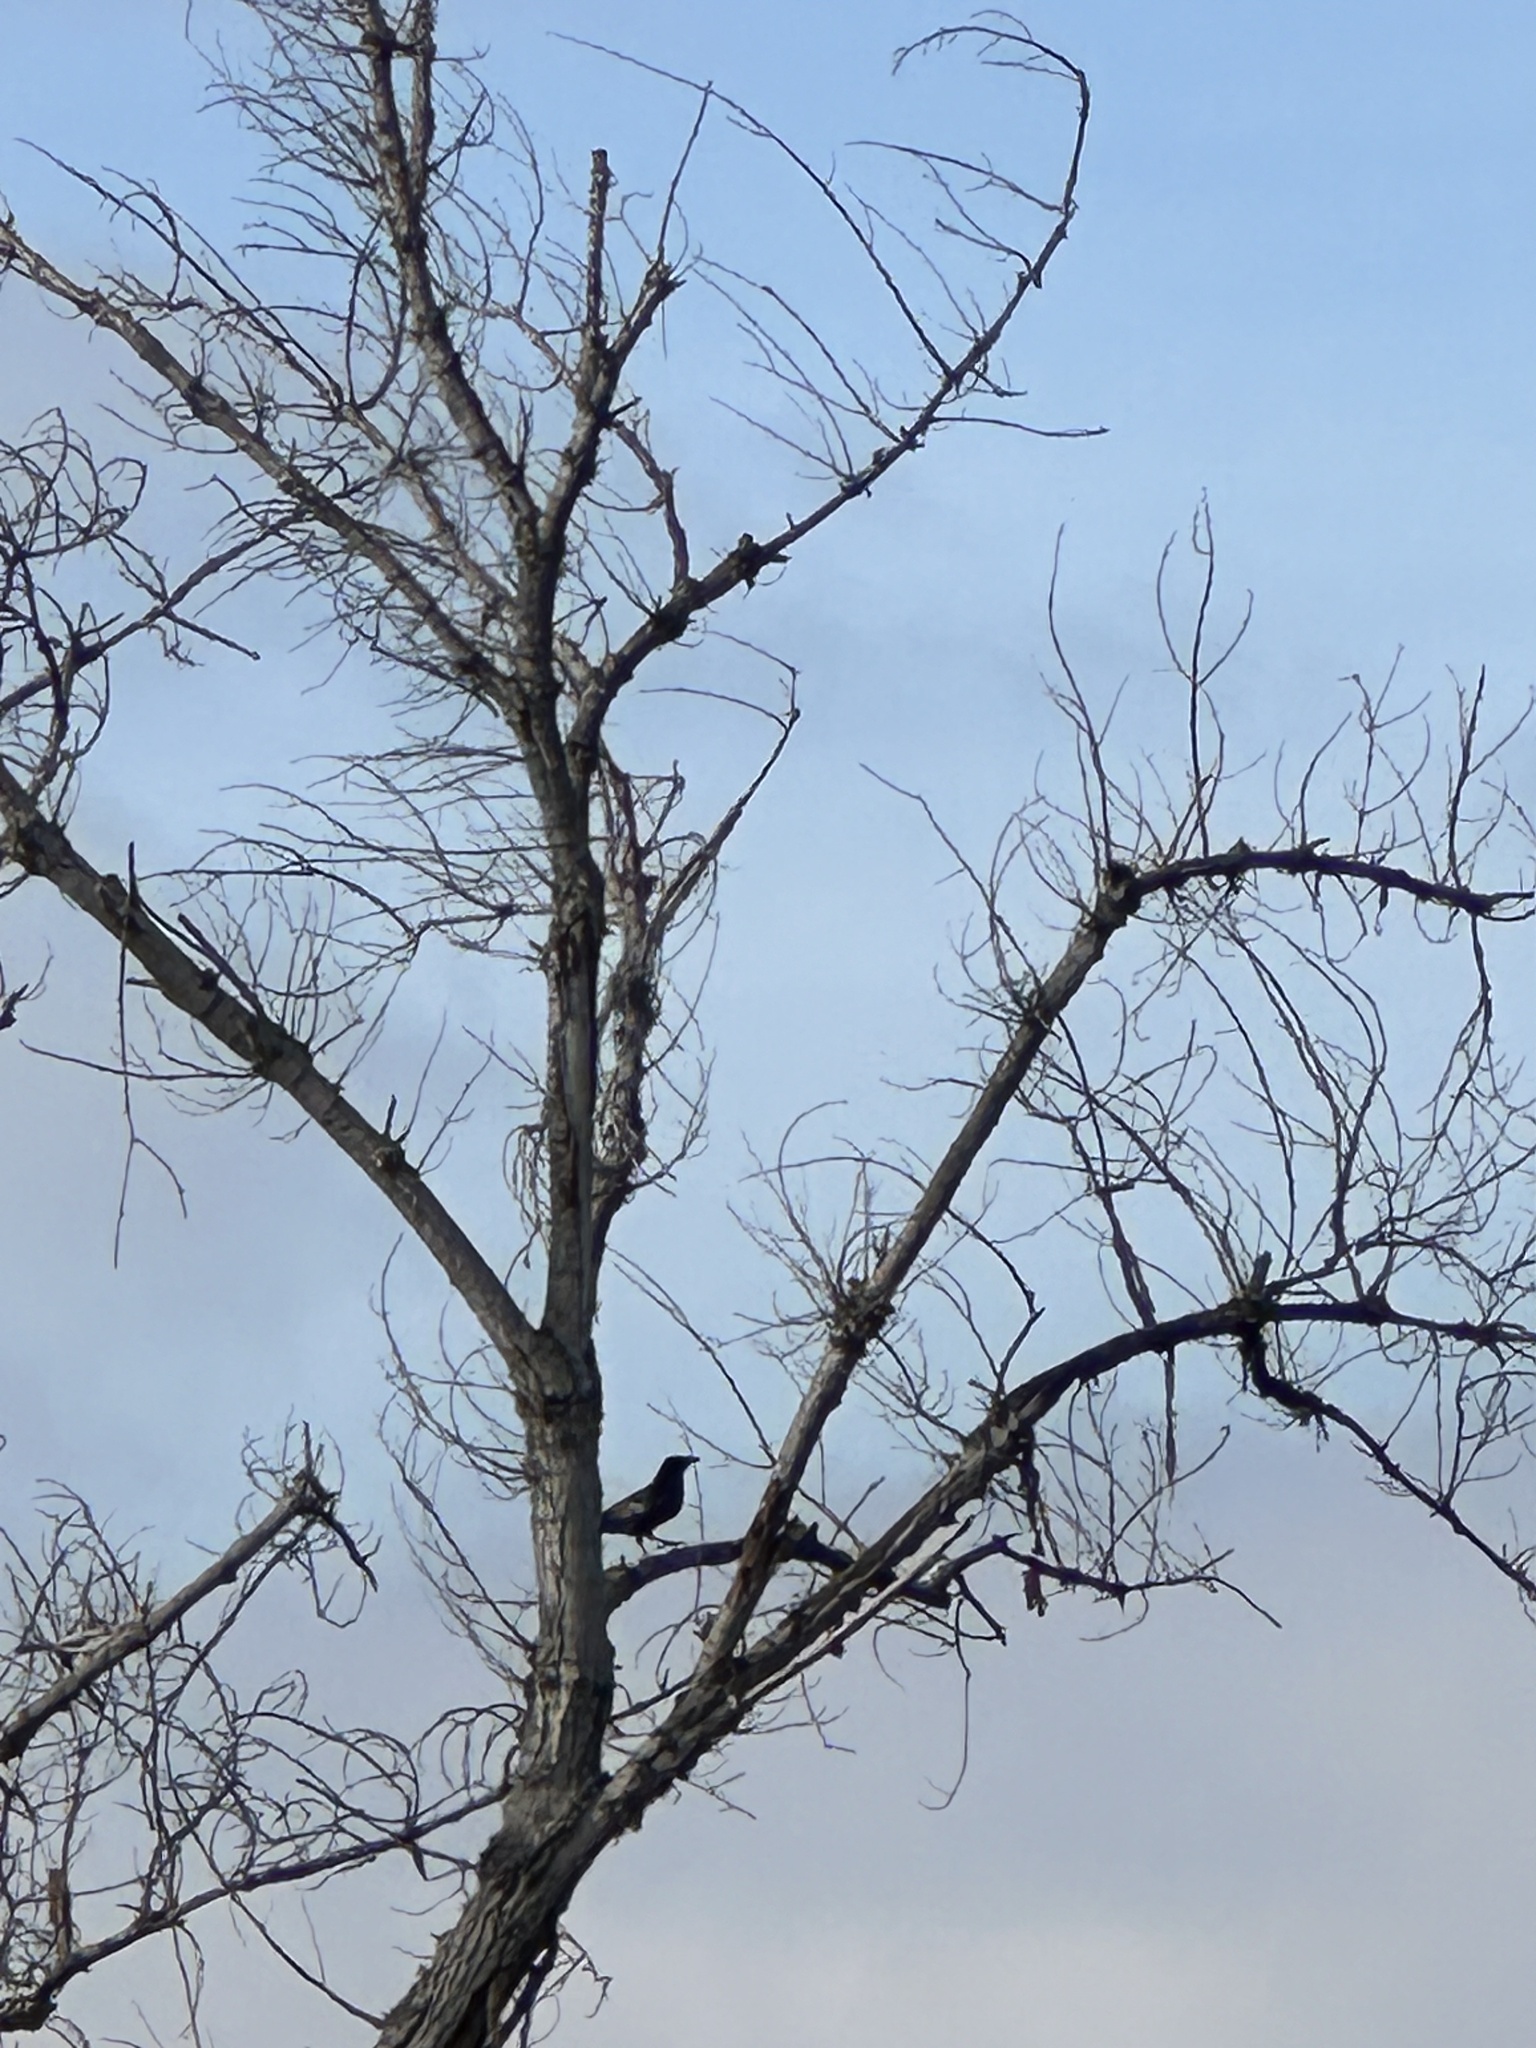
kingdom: Animalia
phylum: Chordata
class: Aves
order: Passeriformes
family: Corvidae
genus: Corvus
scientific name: Corvus brachyrhynchos
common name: American crow
